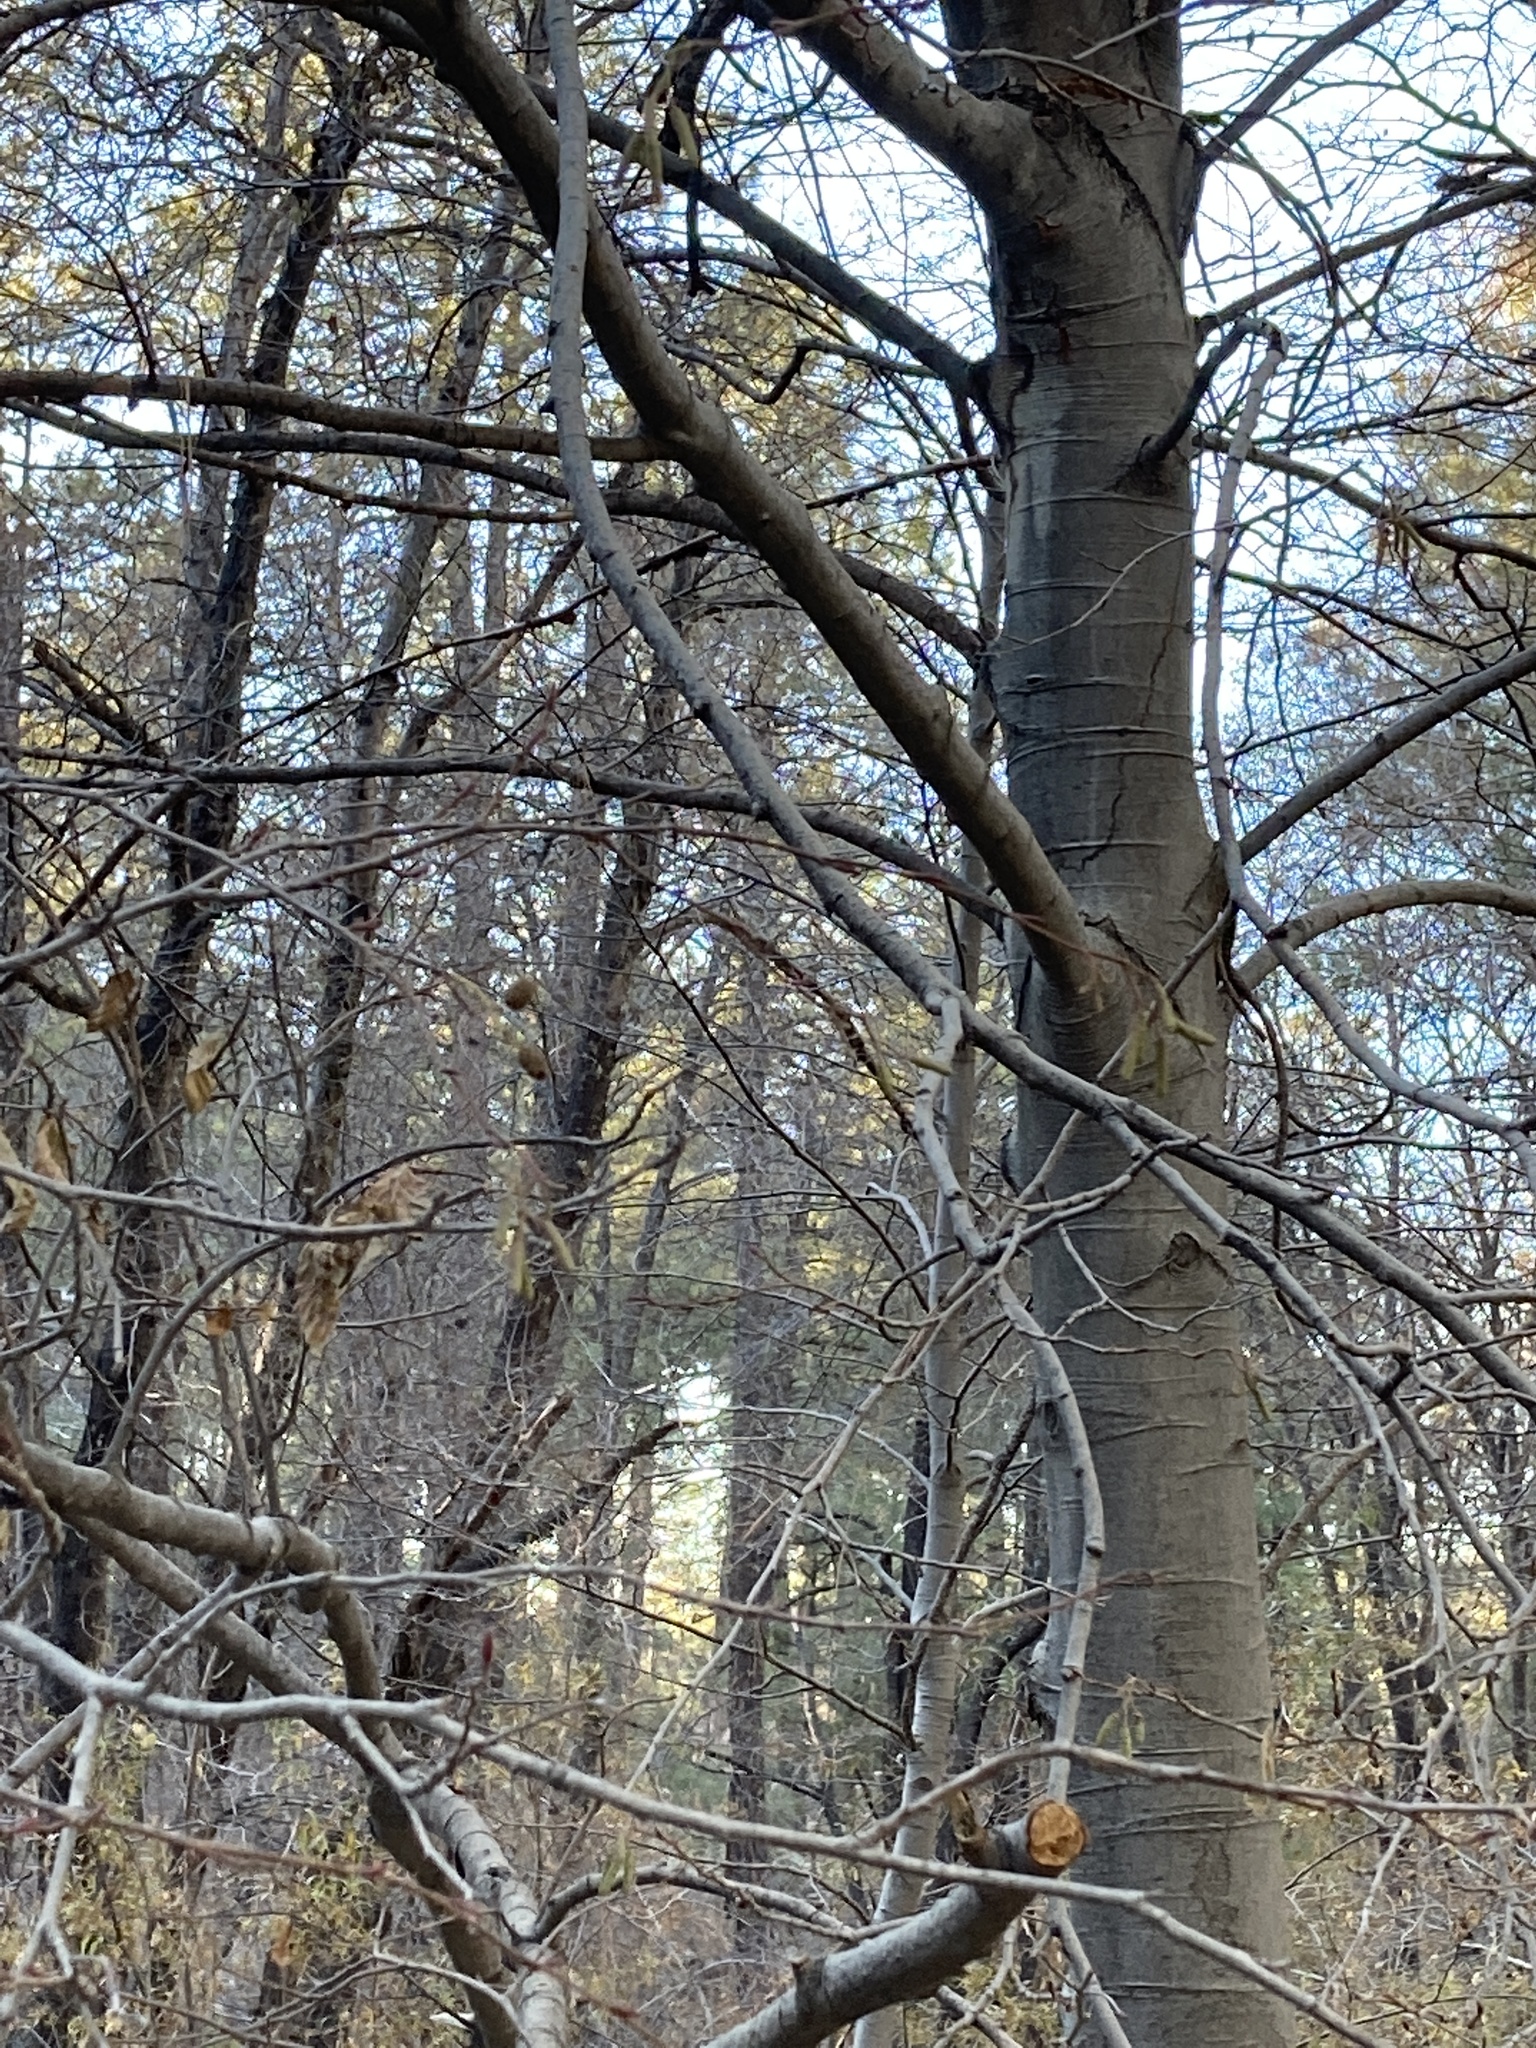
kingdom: Plantae
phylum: Tracheophyta
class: Magnoliopsida
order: Fagales
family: Betulaceae
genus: Alnus
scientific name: Alnus oblongifolia
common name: Arizona alder
